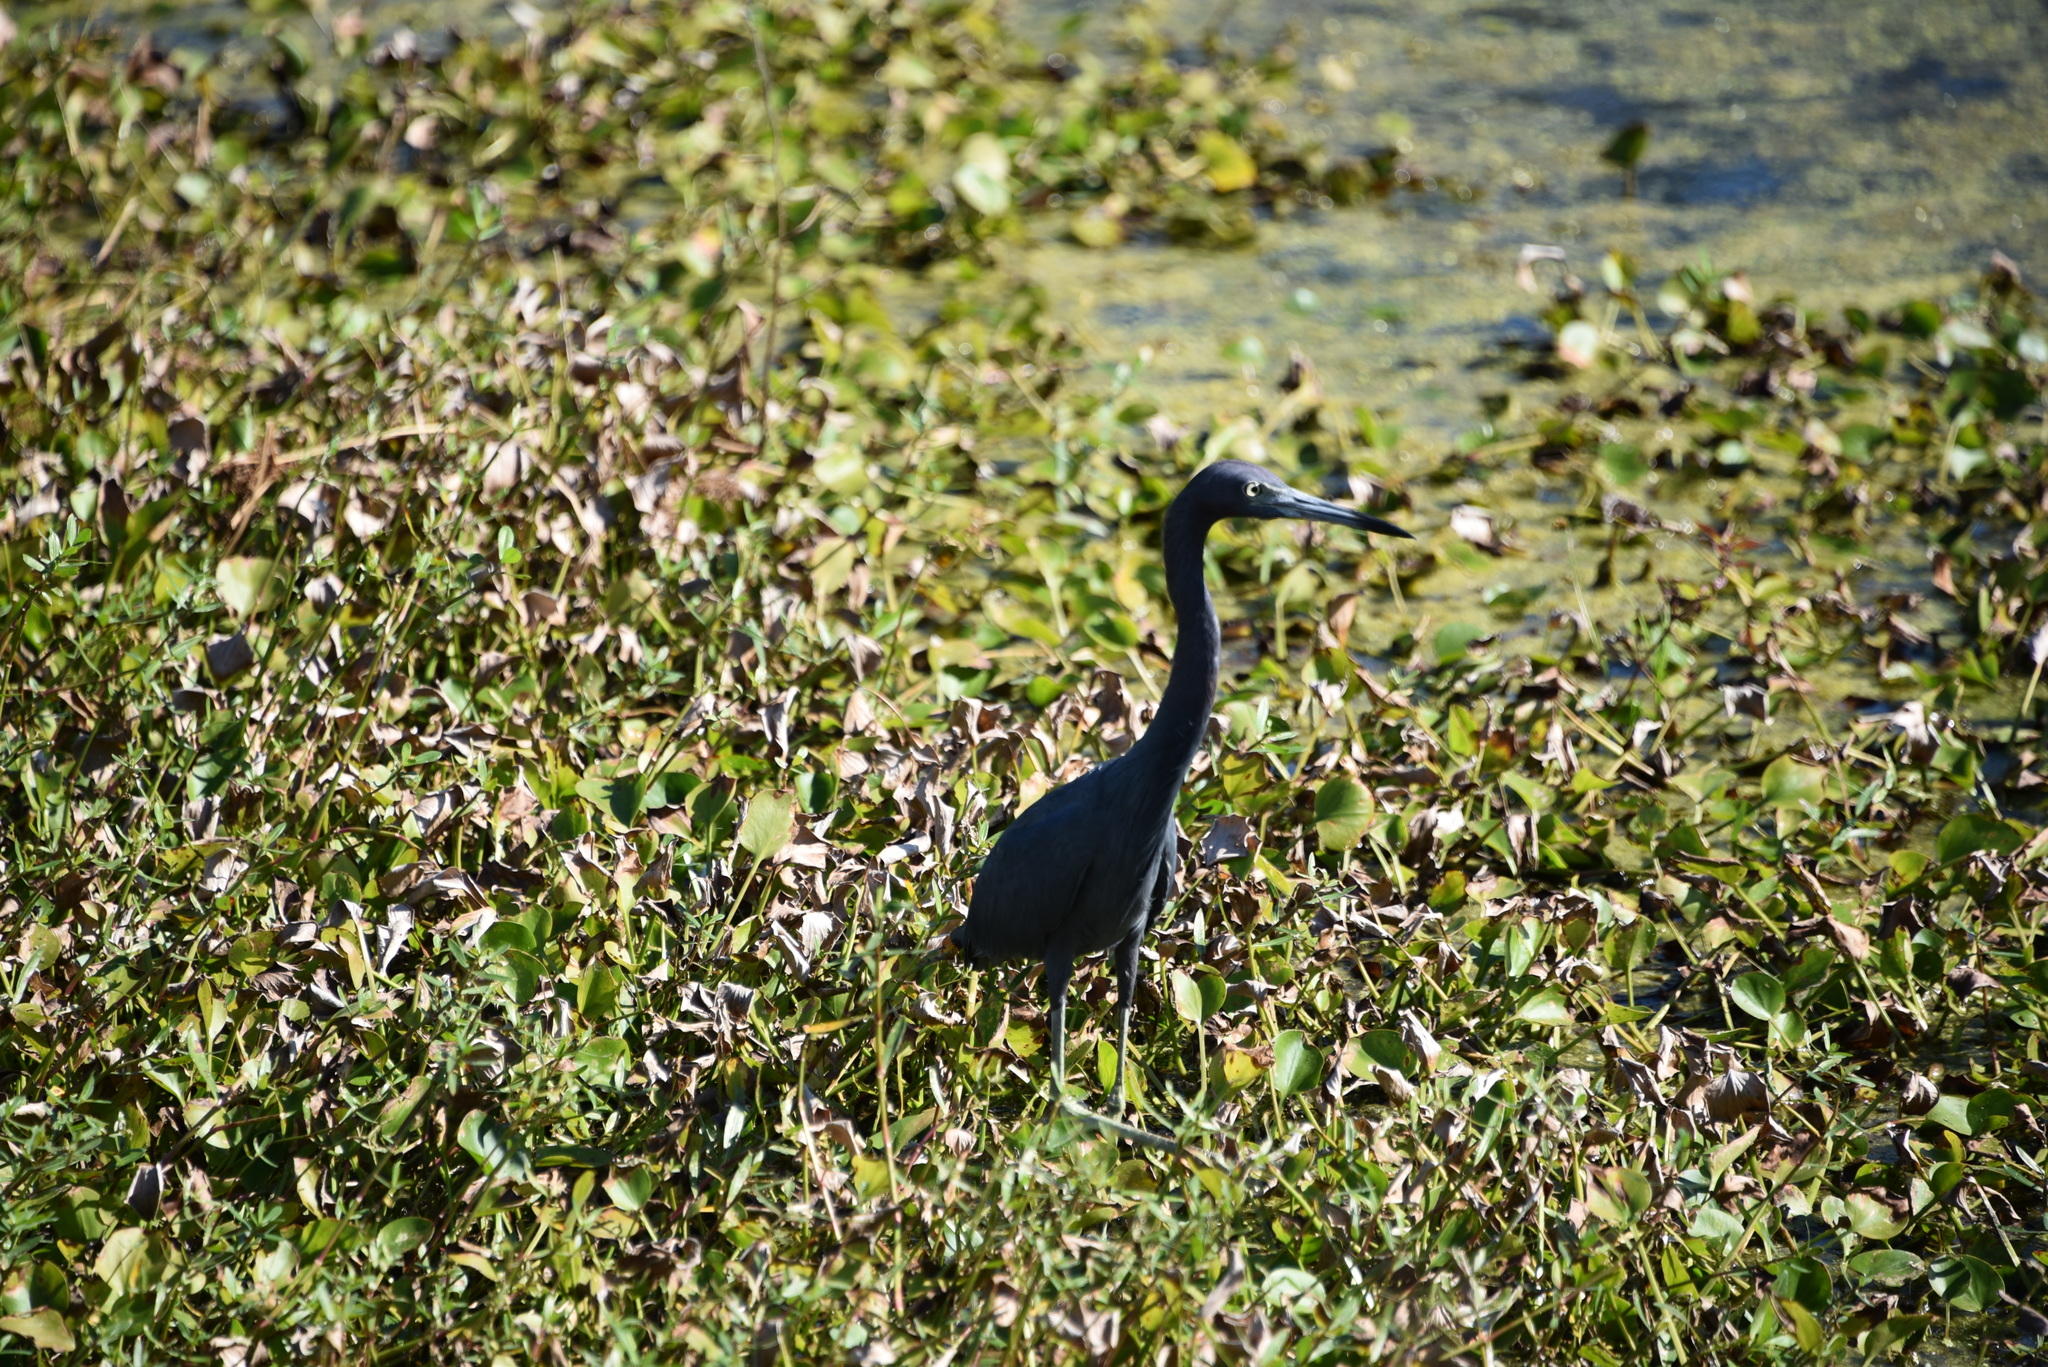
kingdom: Animalia
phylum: Chordata
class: Aves
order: Pelecaniformes
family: Ardeidae
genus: Egretta
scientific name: Egretta caerulea
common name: Little blue heron
